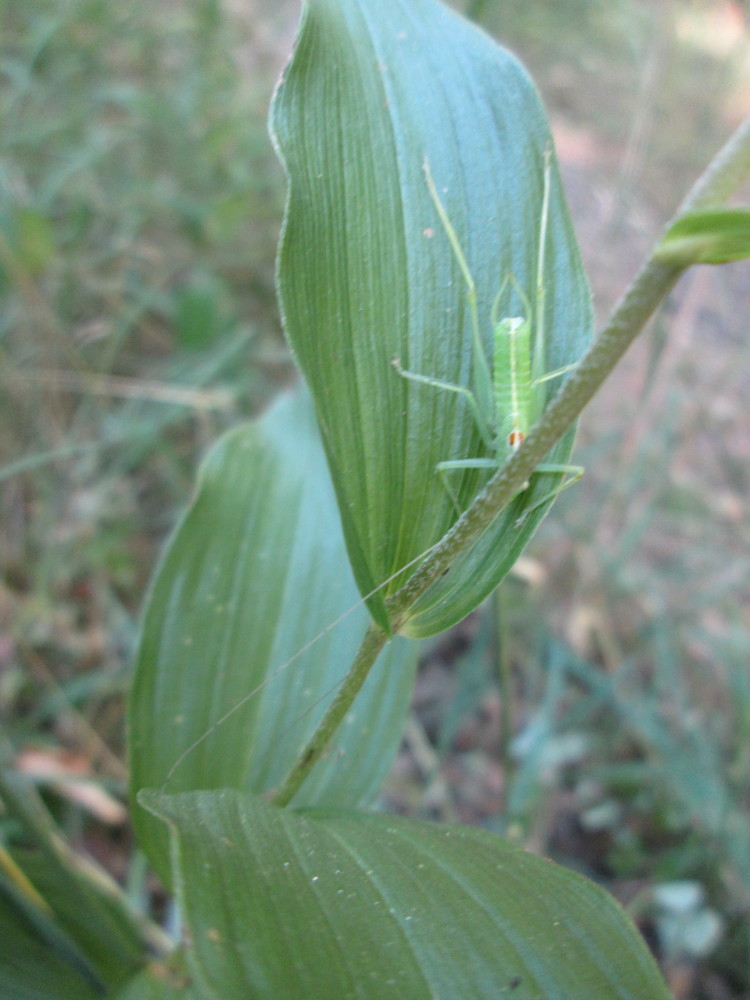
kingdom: Plantae
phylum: Tracheophyta
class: Liliopsida
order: Asparagales
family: Orchidaceae
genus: Epipactis
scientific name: Epipactis helleborine
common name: Broad-leaved helleborine
